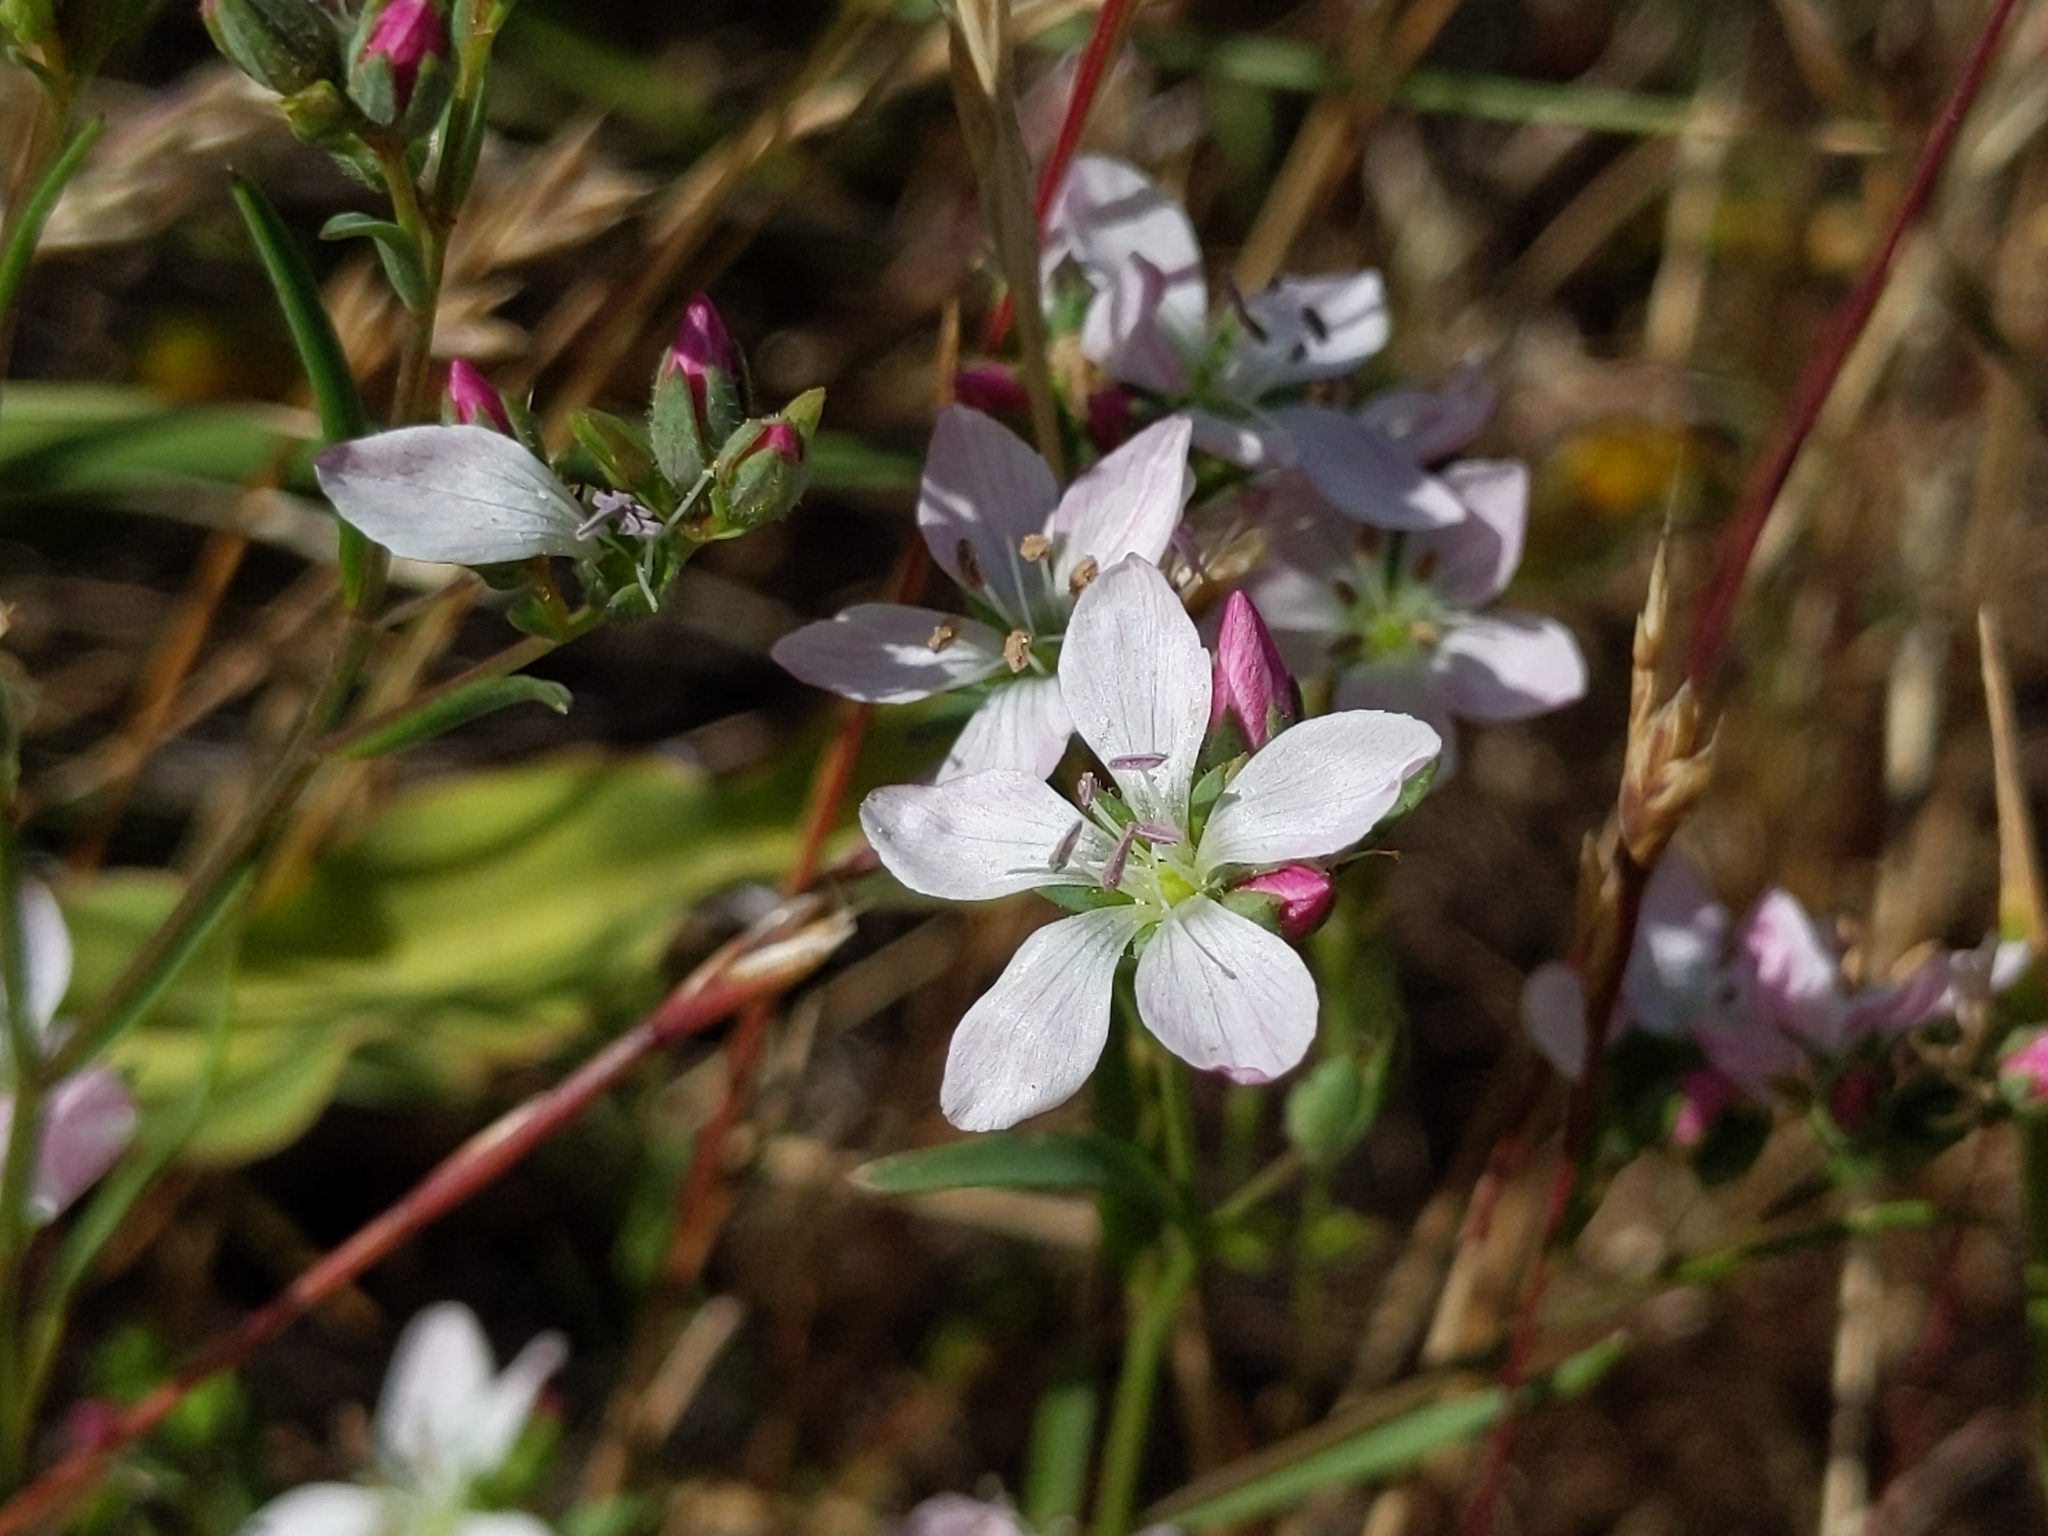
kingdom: Plantae
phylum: Tracheophyta
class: Magnoliopsida
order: Malpighiales
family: Linaceae
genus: Hesperolinon
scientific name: Hesperolinon congestum
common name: Marin dwarf-flax
